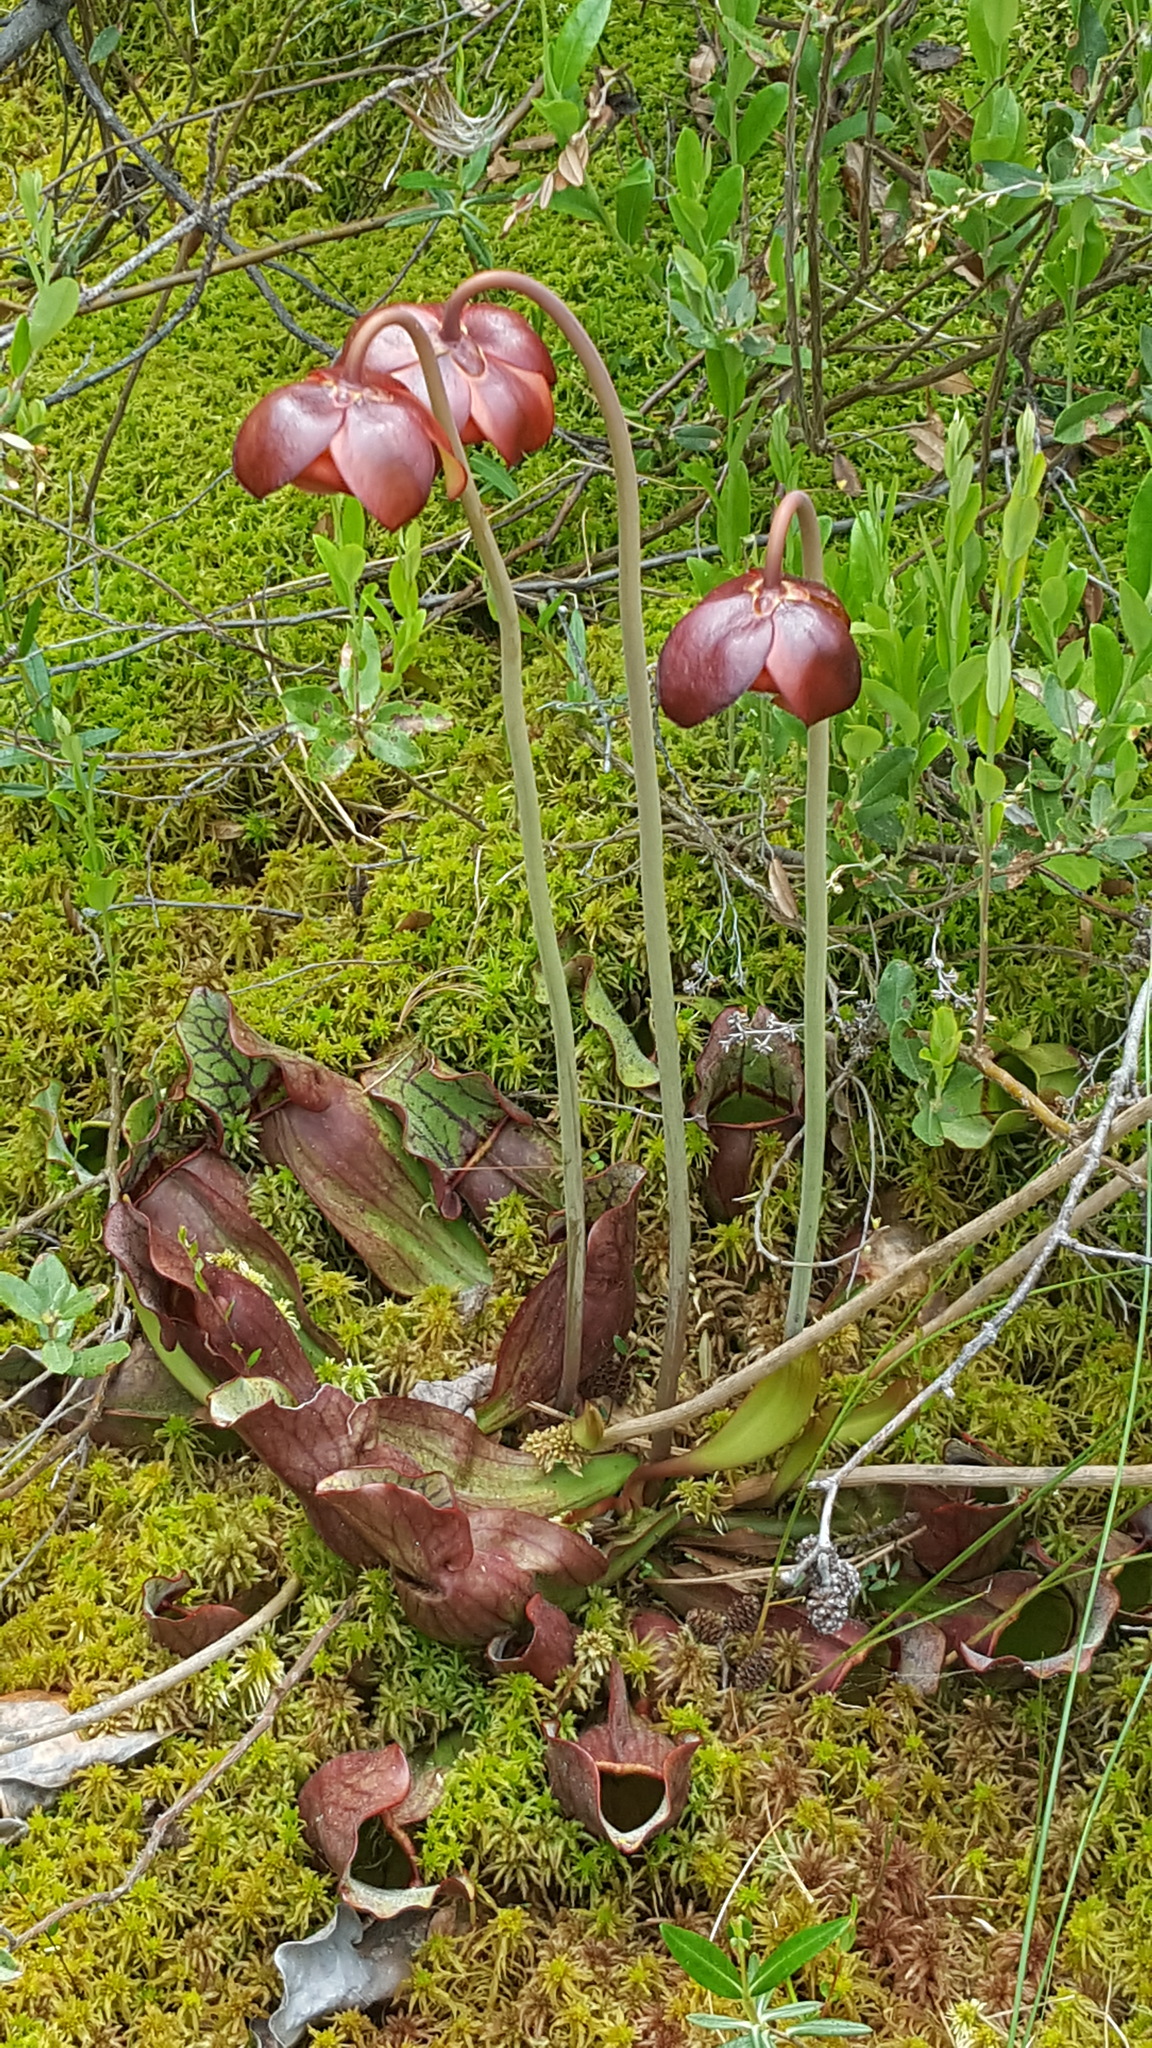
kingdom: Plantae
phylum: Tracheophyta
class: Magnoliopsida
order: Ericales
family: Sarraceniaceae
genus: Sarracenia
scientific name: Sarracenia purpurea
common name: Pitcherplant
